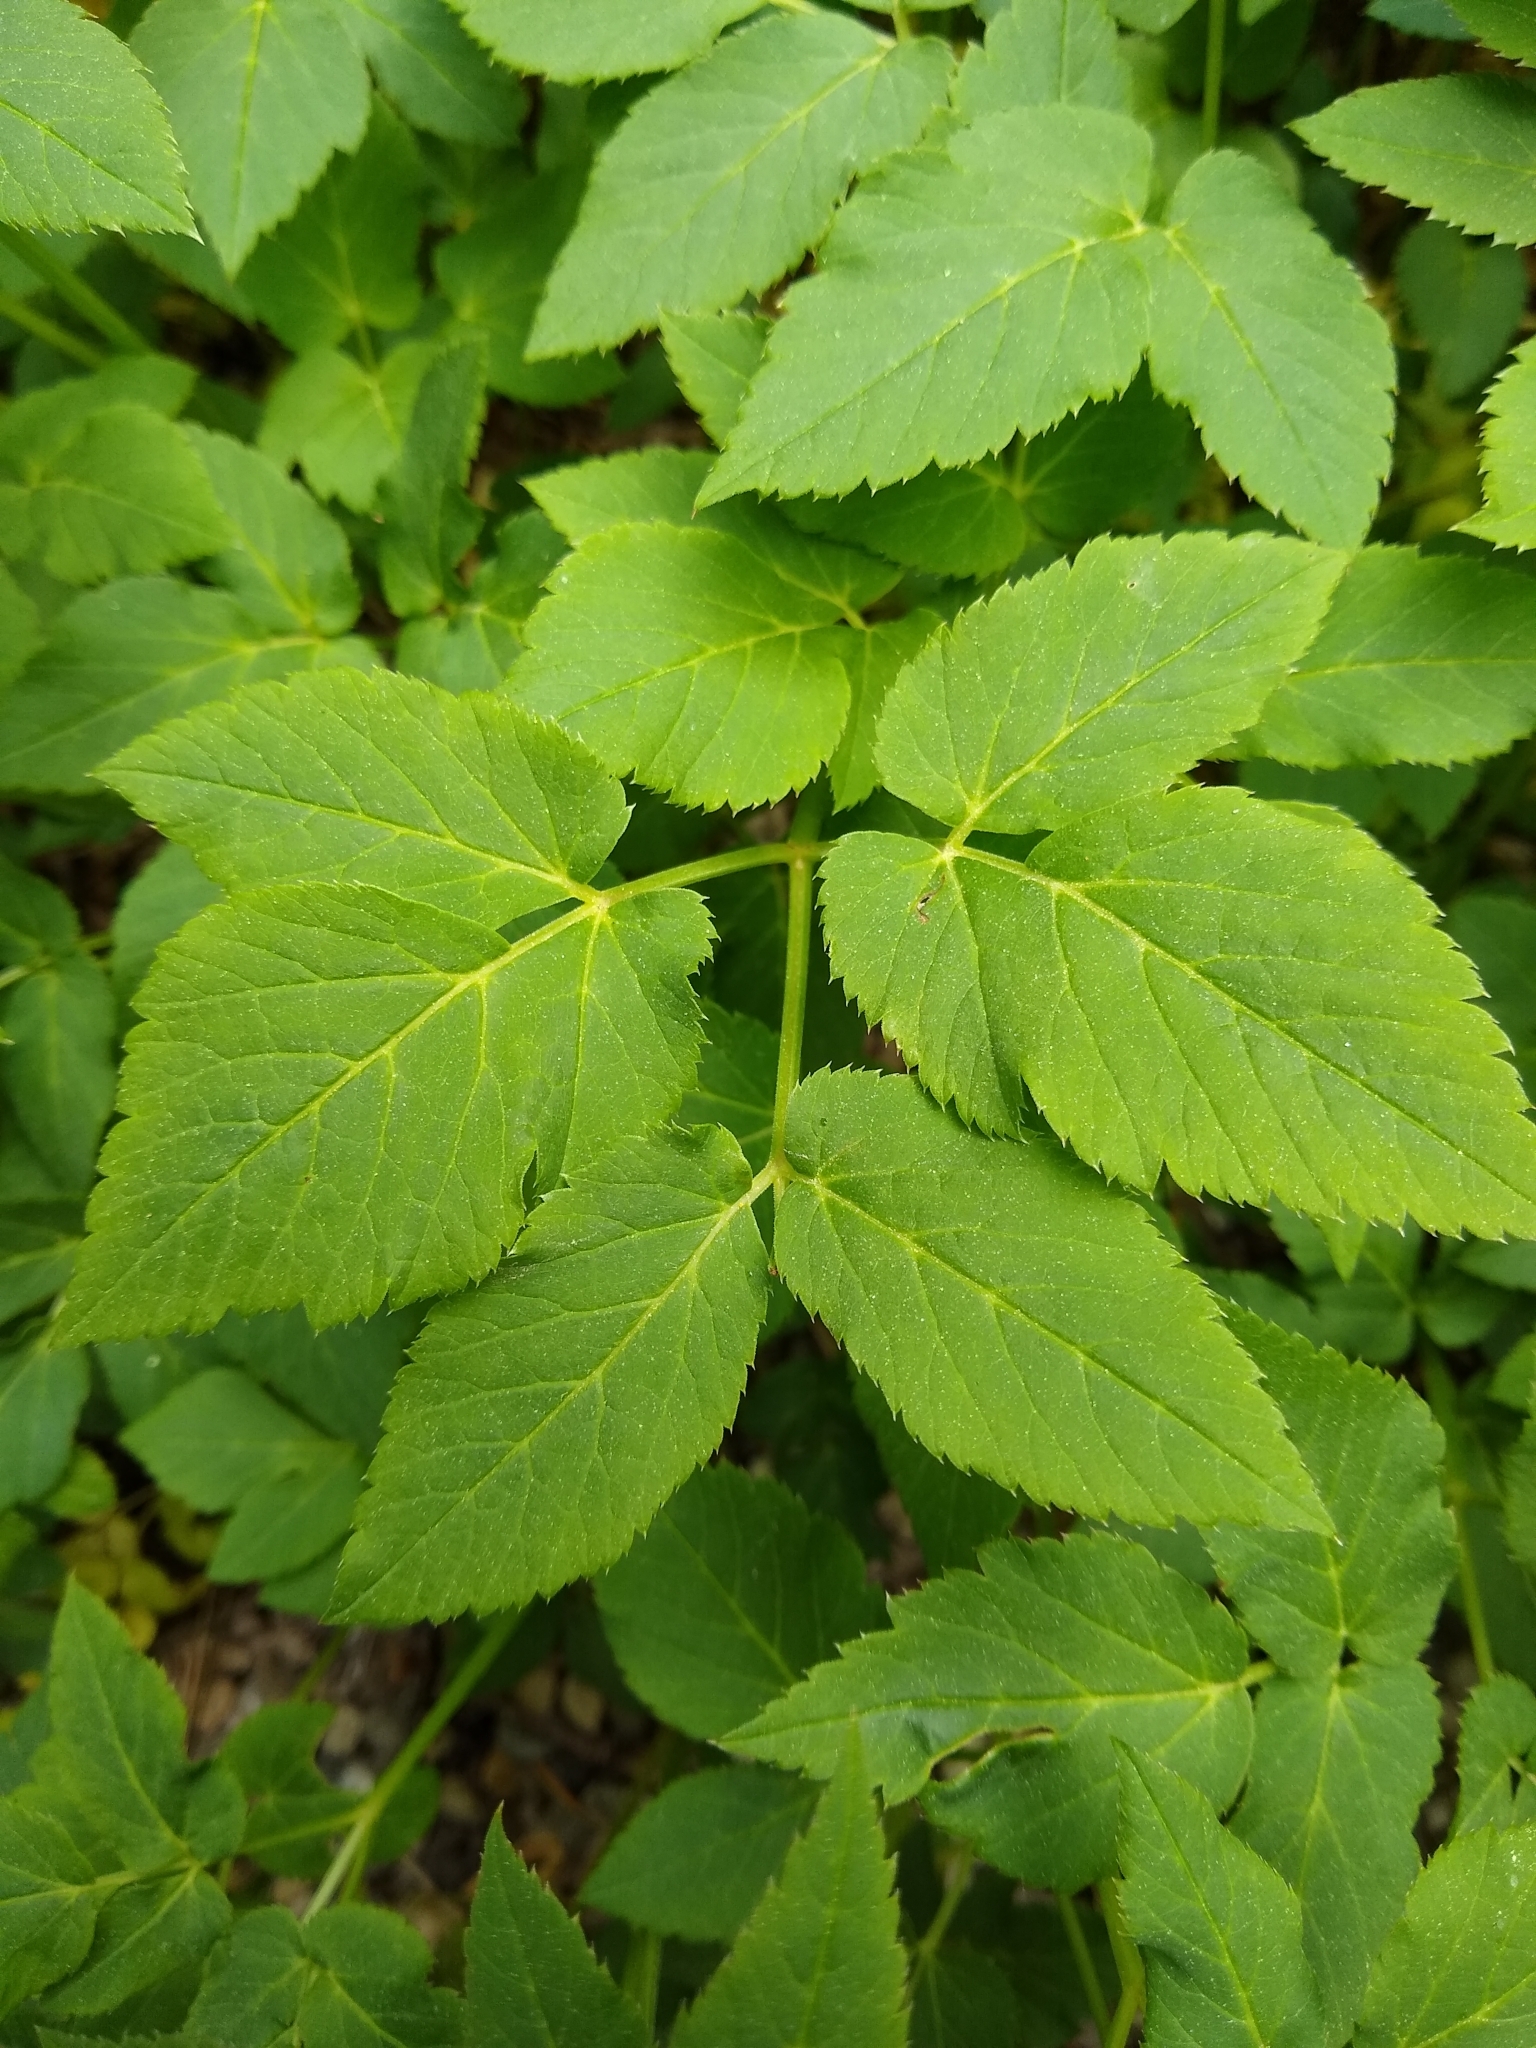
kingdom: Plantae
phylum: Tracheophyta
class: Magnoliopsida
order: Apiales
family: Apiaceae
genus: Aegopodium
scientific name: Aegopodium podagraria
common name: Ground-elder
